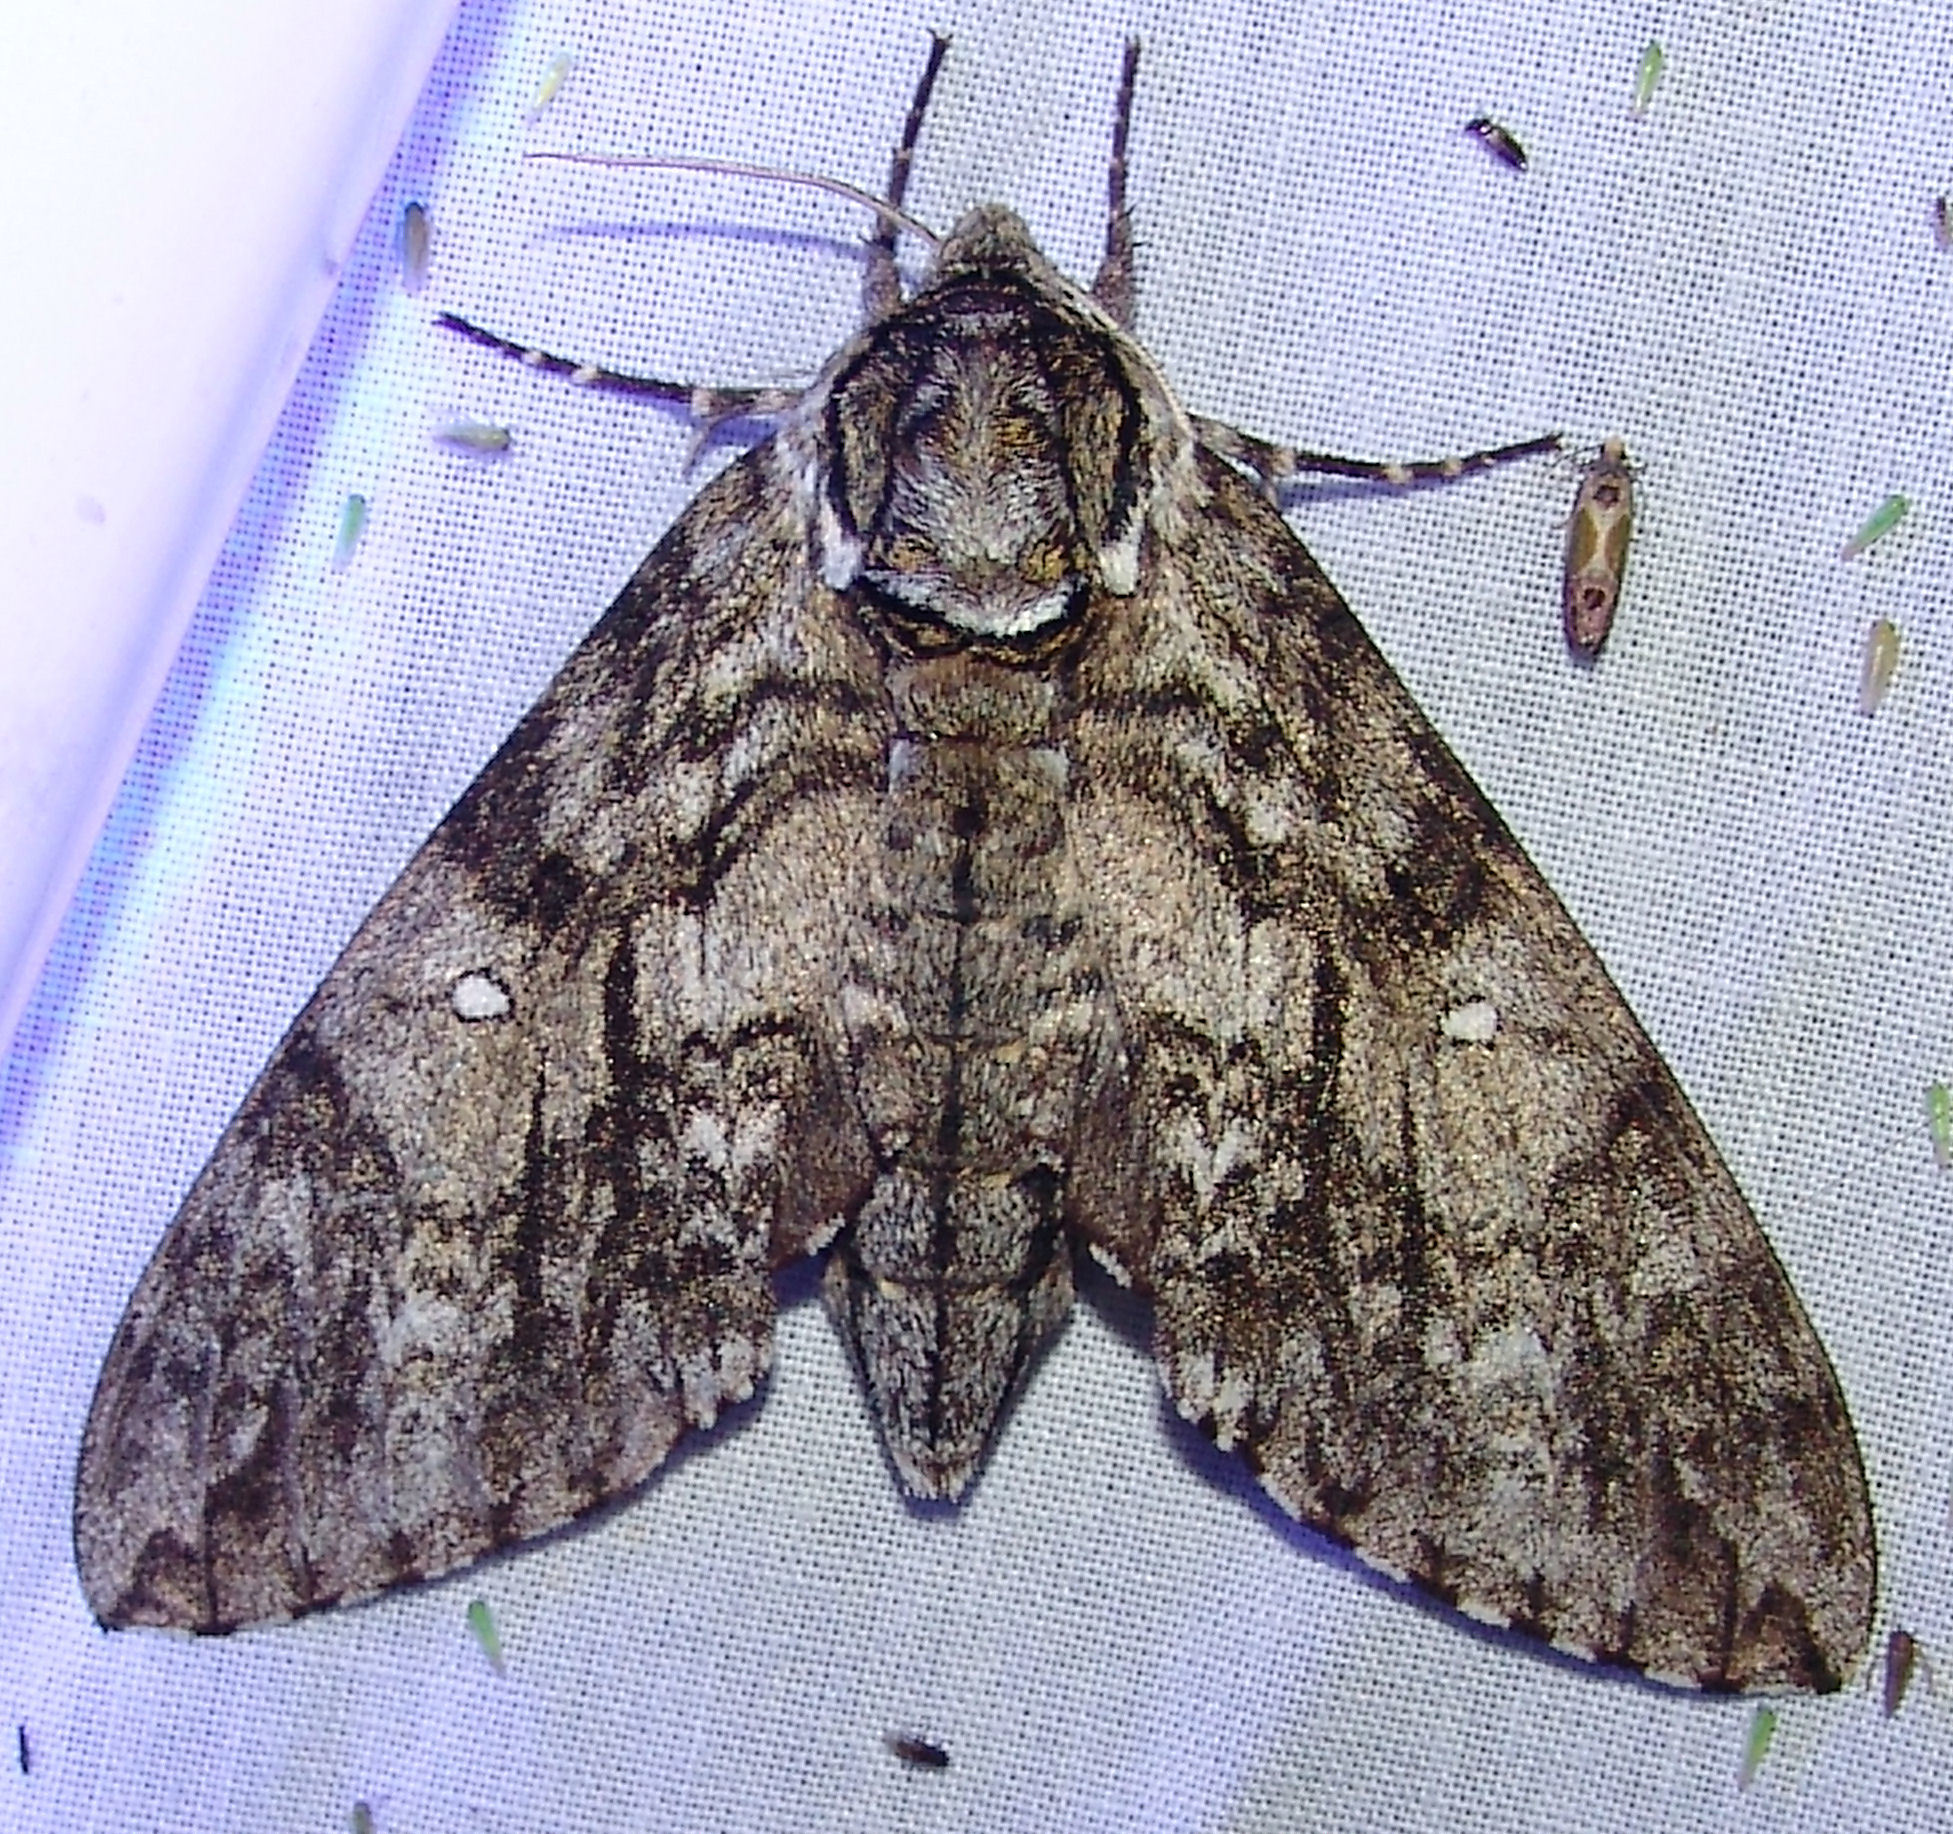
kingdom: Animalia
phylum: Arthropoda
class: Insecta
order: Lepidoptera
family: Sphingidae
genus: Ceratomia
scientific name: Ceratomia undulosa
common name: Waved sphinx
